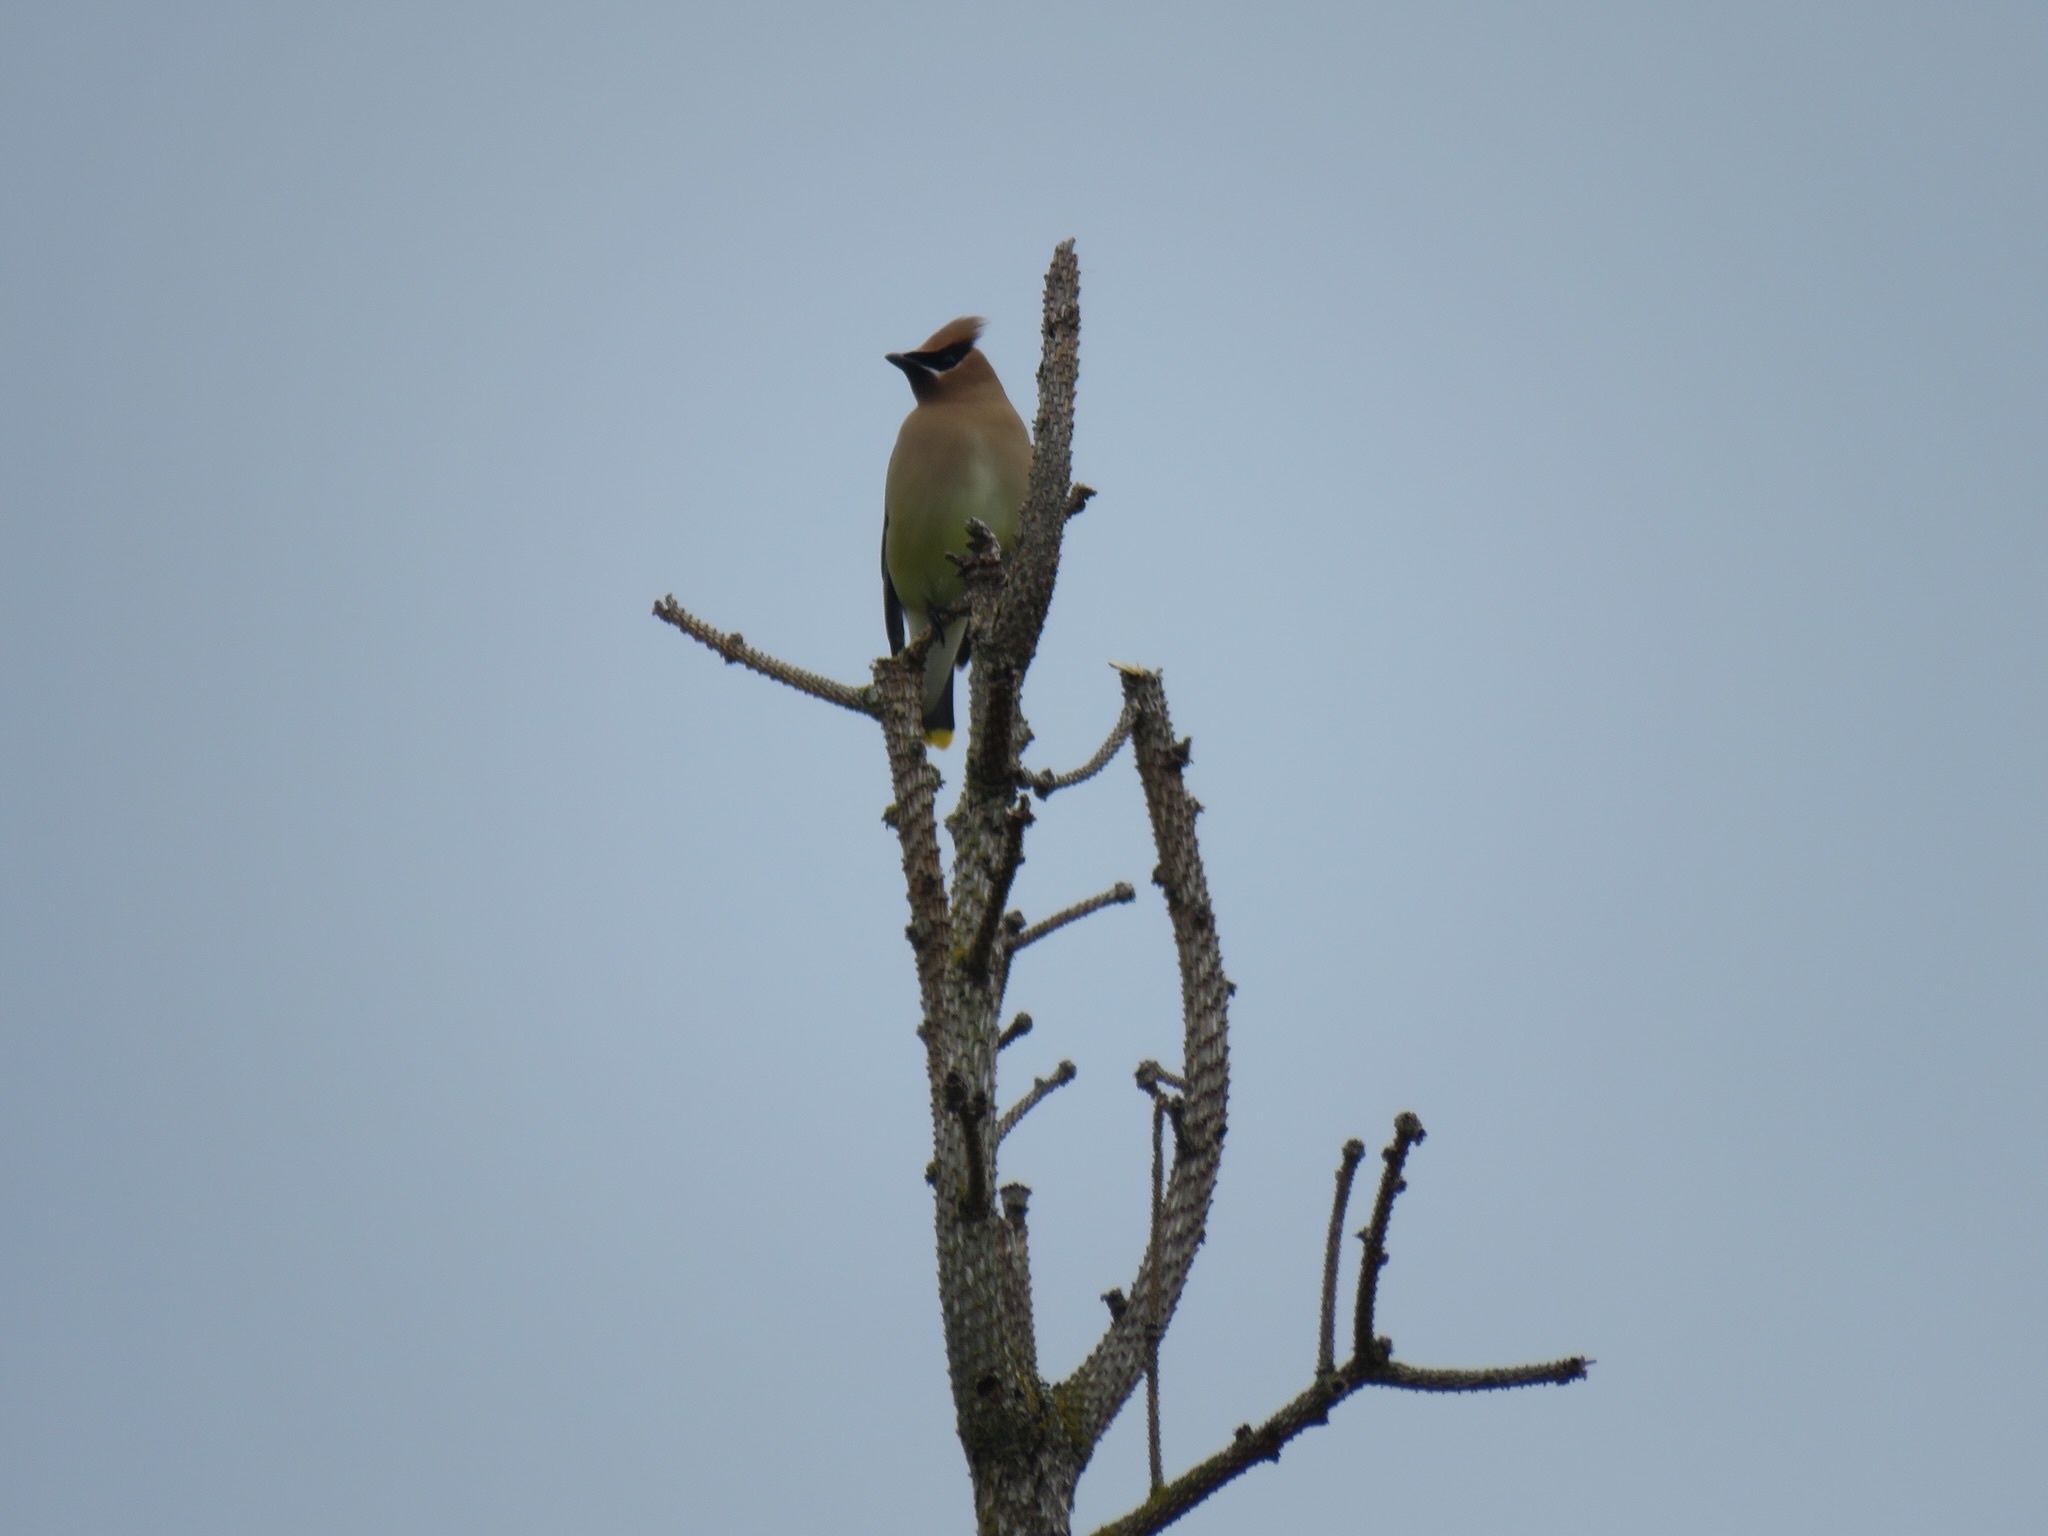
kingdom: Animalia
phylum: Chordata
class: Aves
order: Passeriformes
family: Bombycillidae
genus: Bombycilla
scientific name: Bombycilla cedrorum
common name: Cedar waxwing
